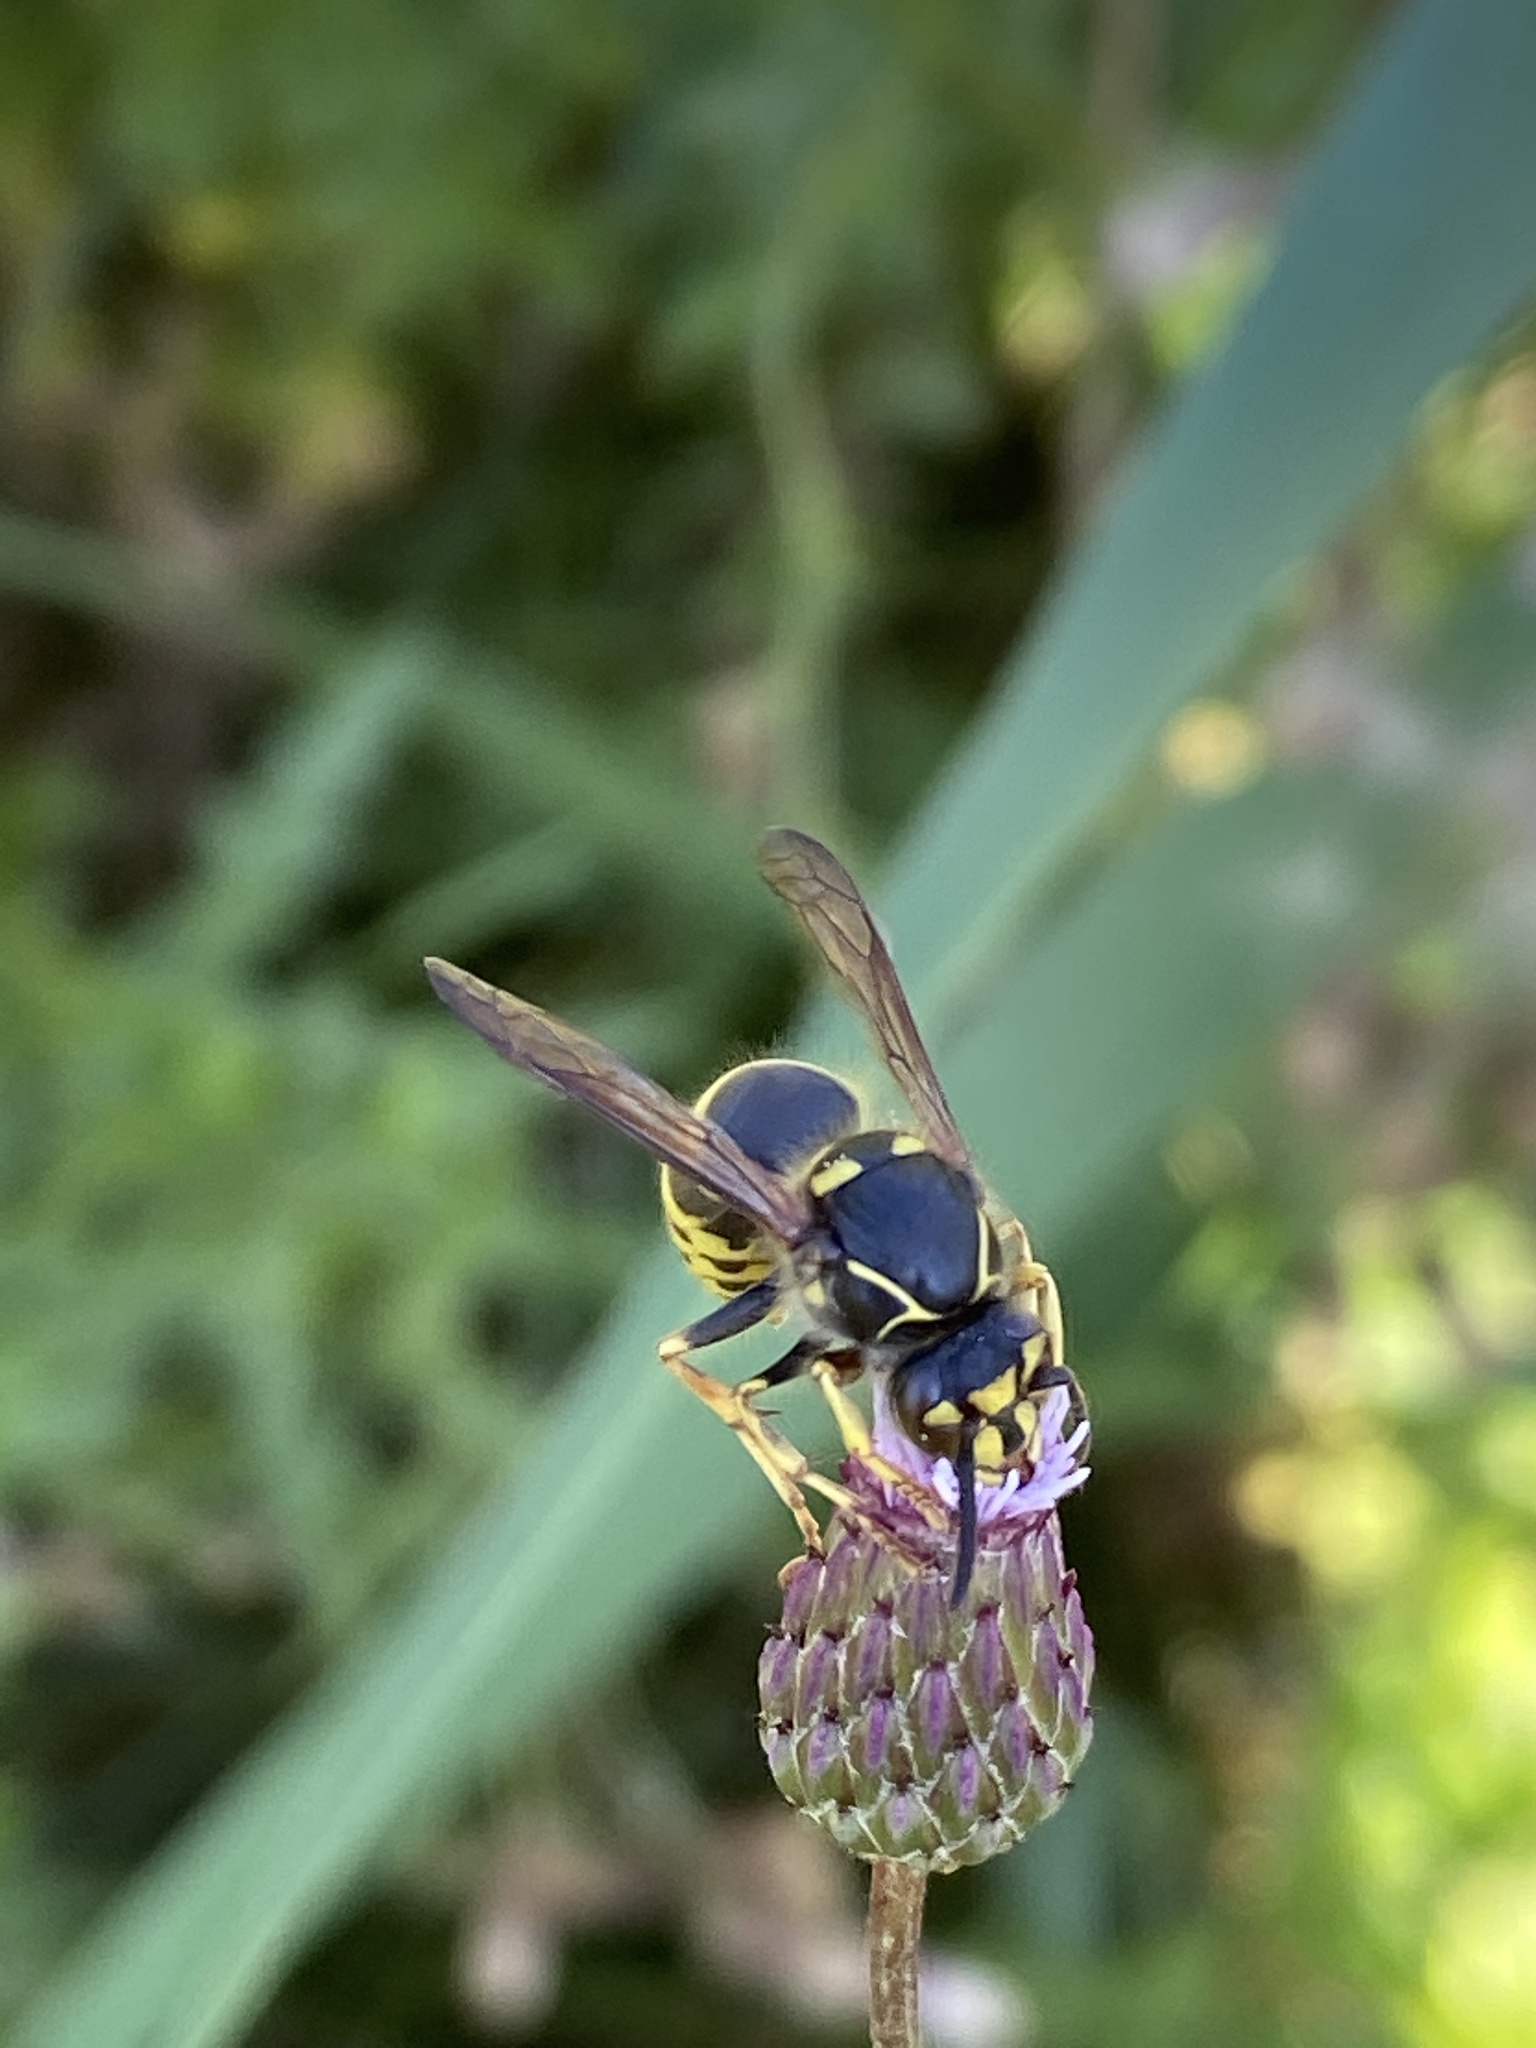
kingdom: Animalia
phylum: Arthropoda
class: Insecta
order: Hymenoptera
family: Vespidae
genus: Dolichovespula
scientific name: Dolichovespula media
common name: Median wasp
